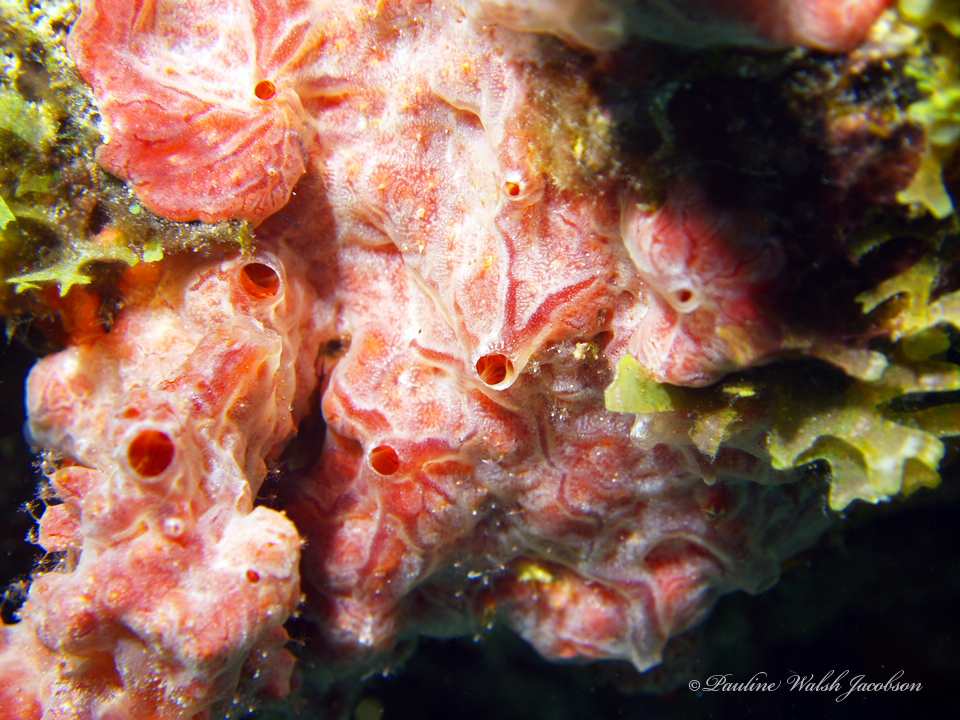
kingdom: Animalia
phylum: Porifera
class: Demospongiae
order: Poecilosclerida
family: Crambeidae
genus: Monanchora
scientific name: Monanchora arbuscula
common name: Red-white marbled sponge
